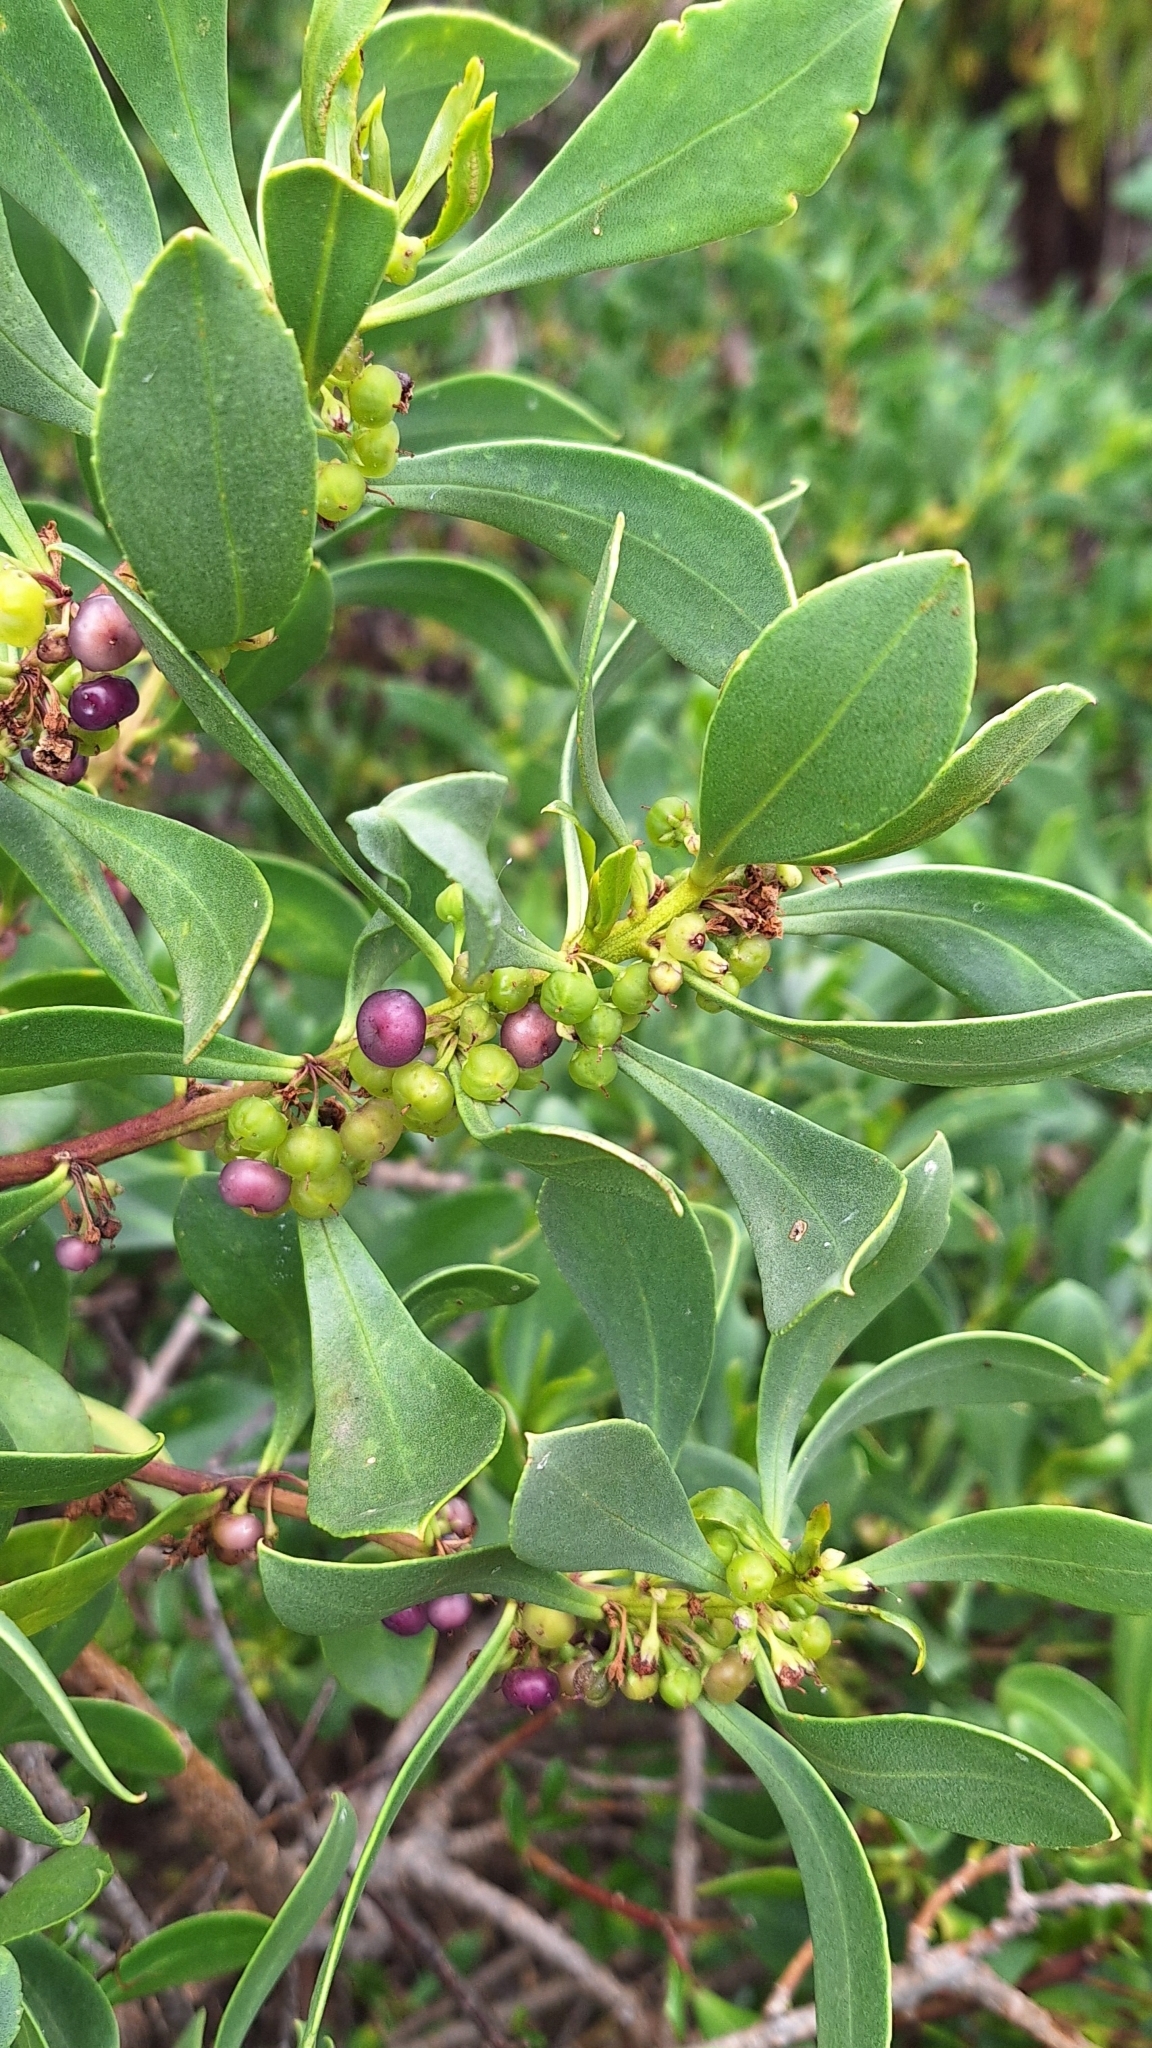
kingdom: Plantae
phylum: Tracheophyta
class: Magnoliopsida
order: Lamiales
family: Scrophulariaceae
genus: Myoporum
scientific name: Myoporum insulare
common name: Common boobialla
